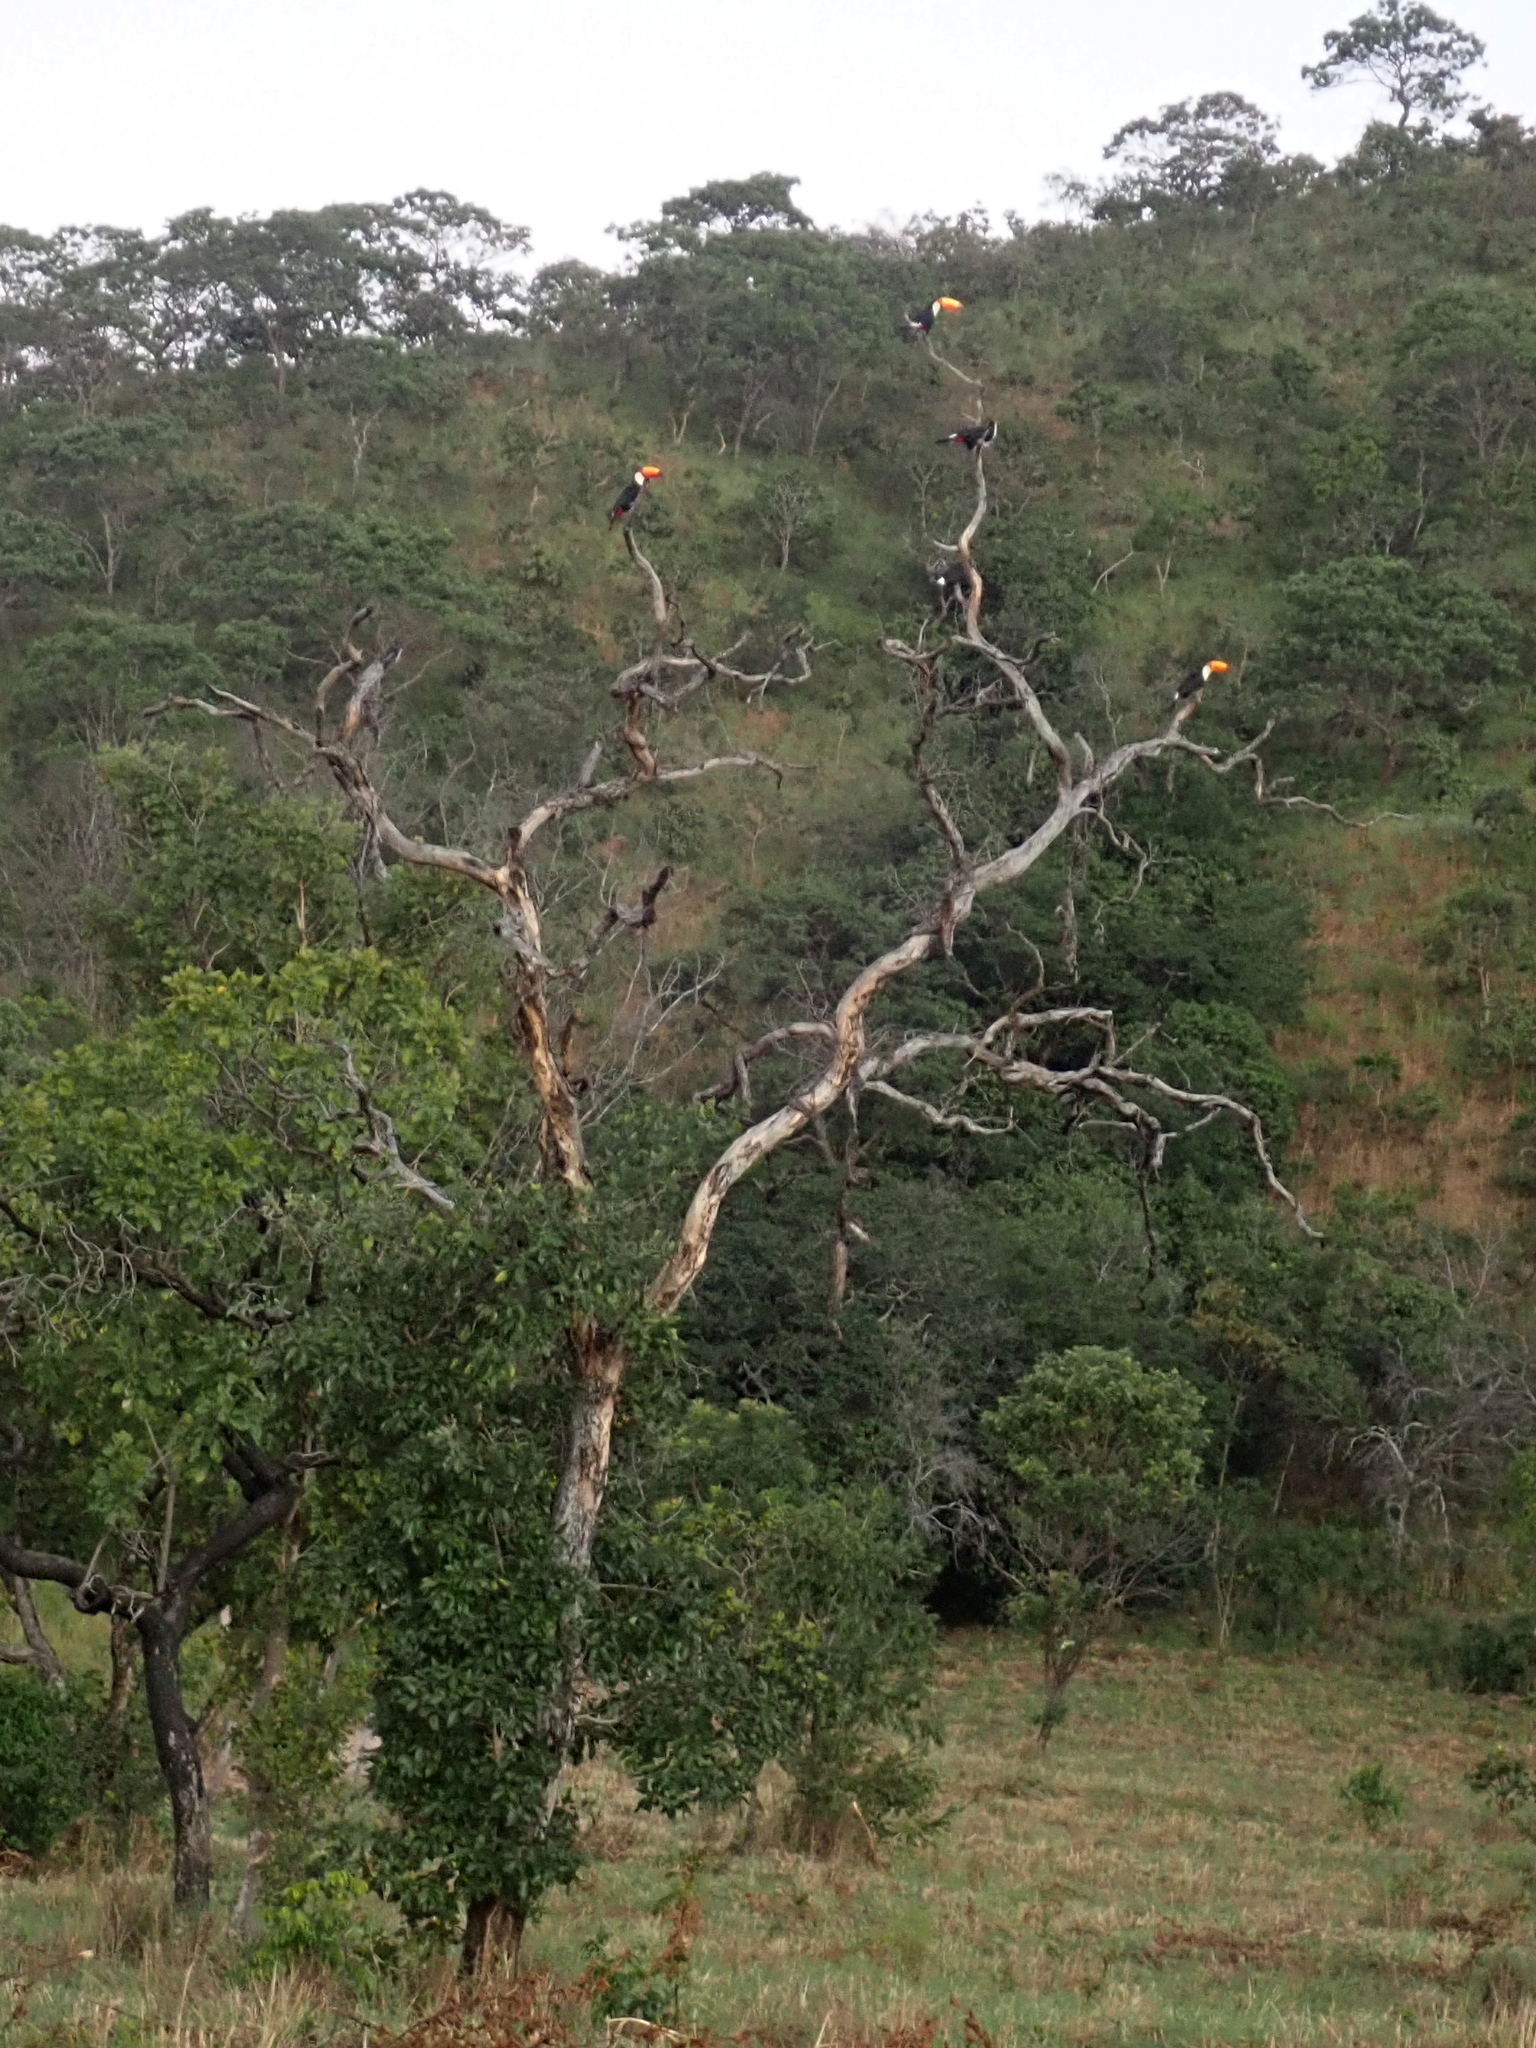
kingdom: Animalia
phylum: Chordata
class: Aves
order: Piciformes
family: Ramphastidae
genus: Ramphastos
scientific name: Ramphastos toco
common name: Toco toucan
